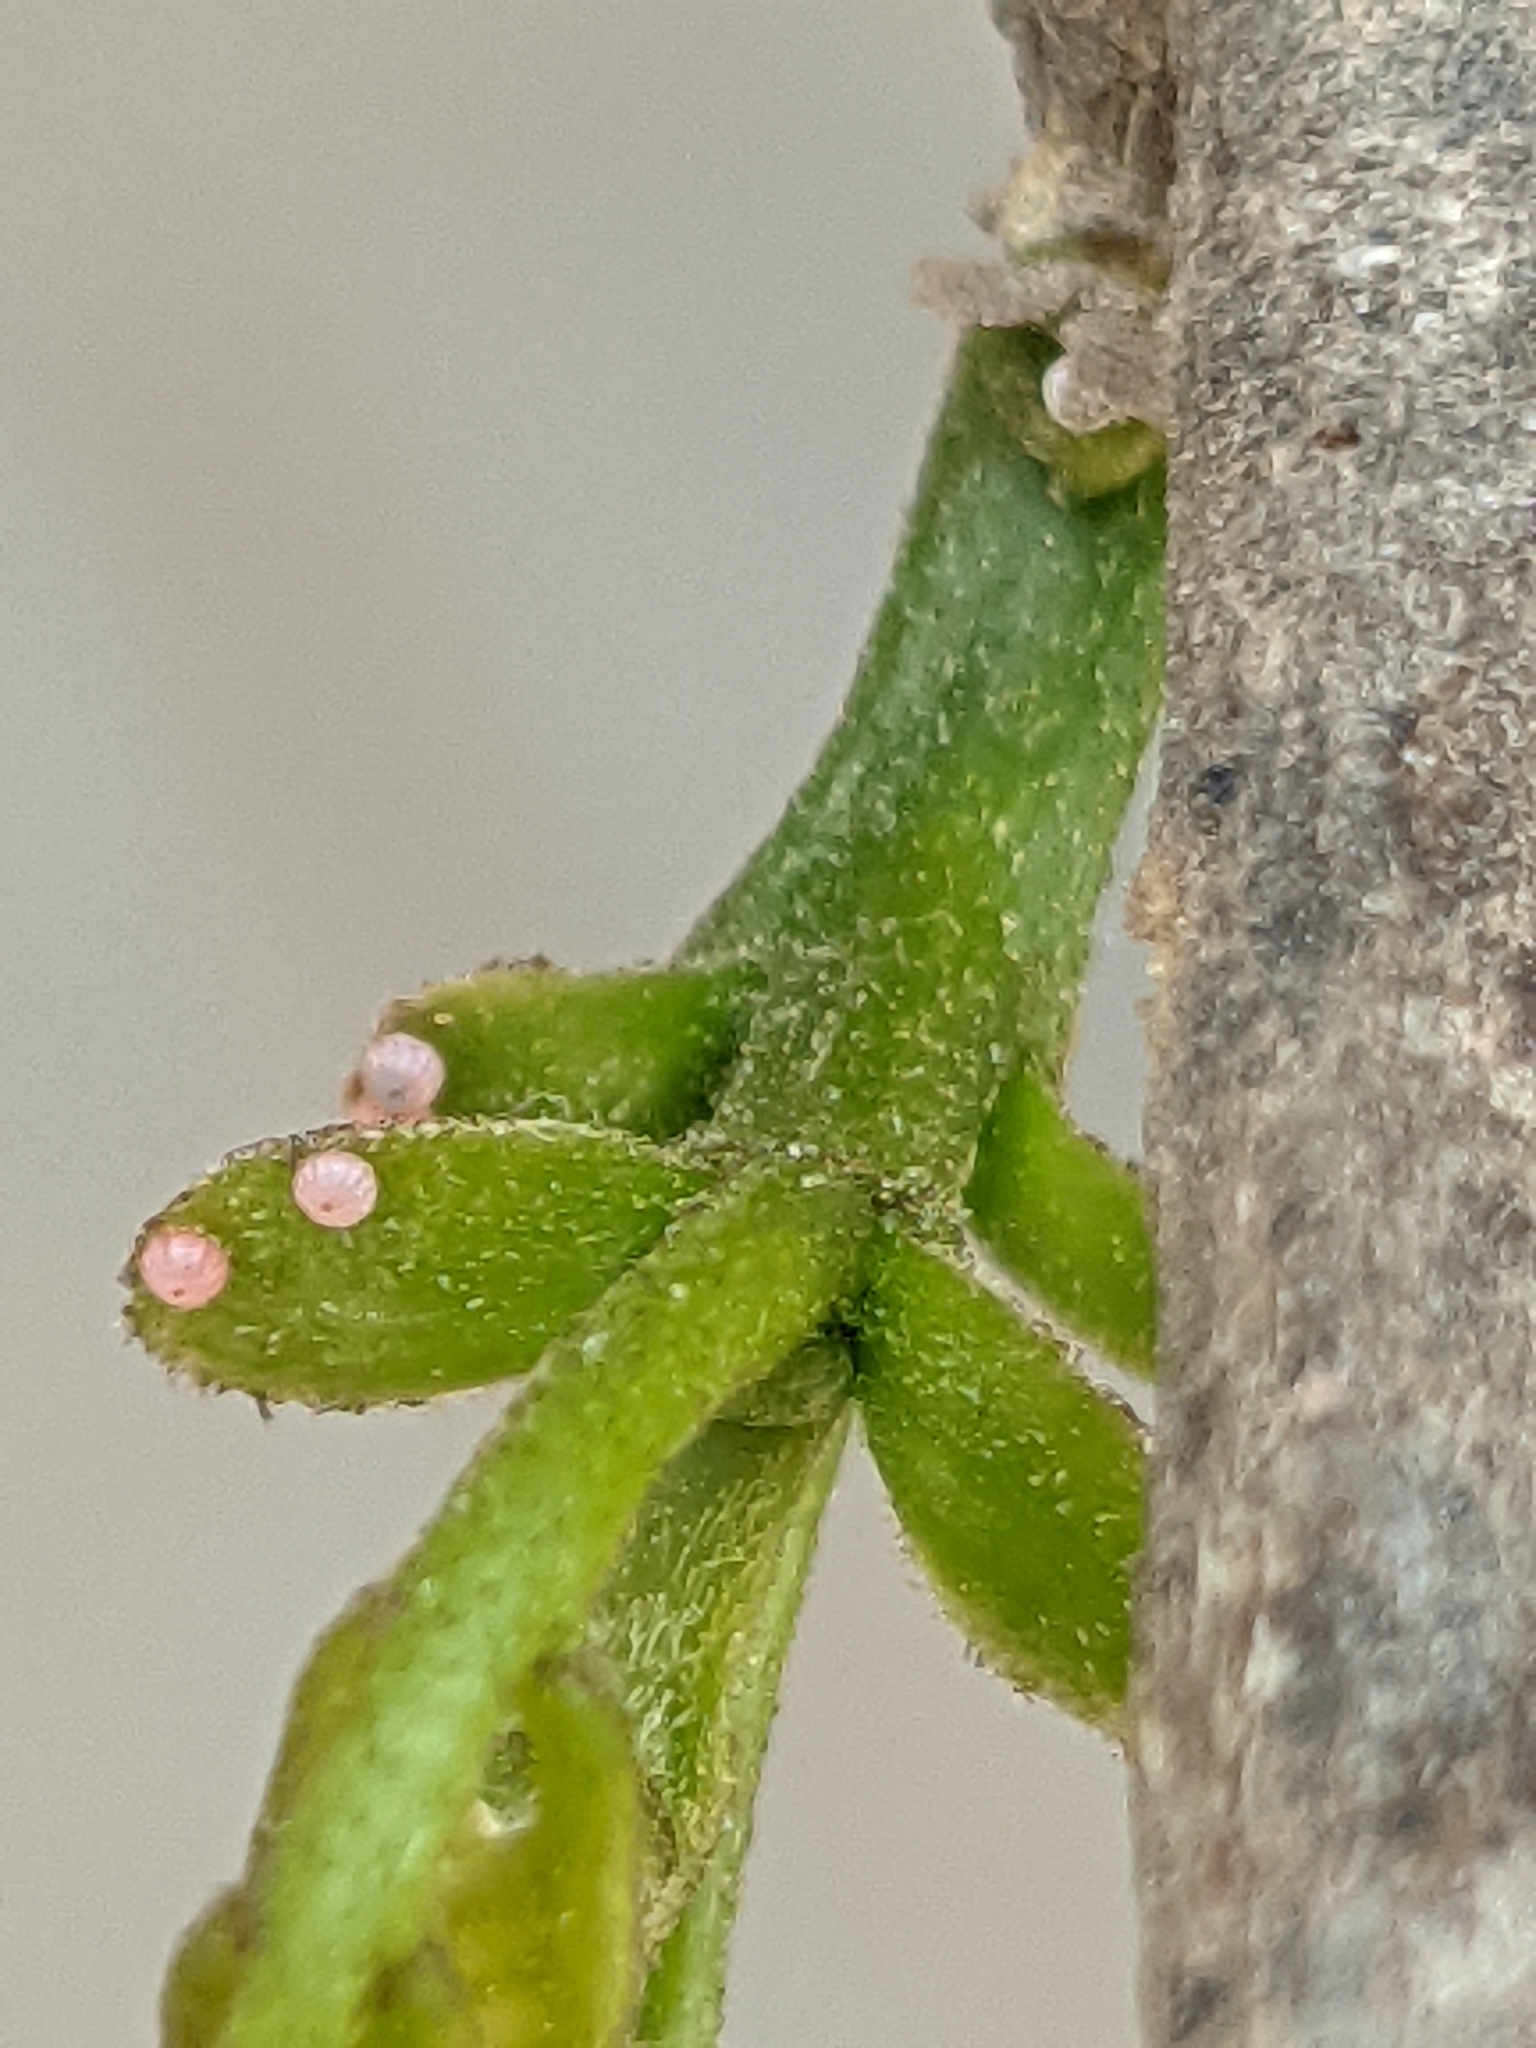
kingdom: Animalia
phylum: Arthropoda
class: Insecta
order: Lepidoptera
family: Hesperiidae
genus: Hasora
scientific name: Hasora chromus
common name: Common banded awl
